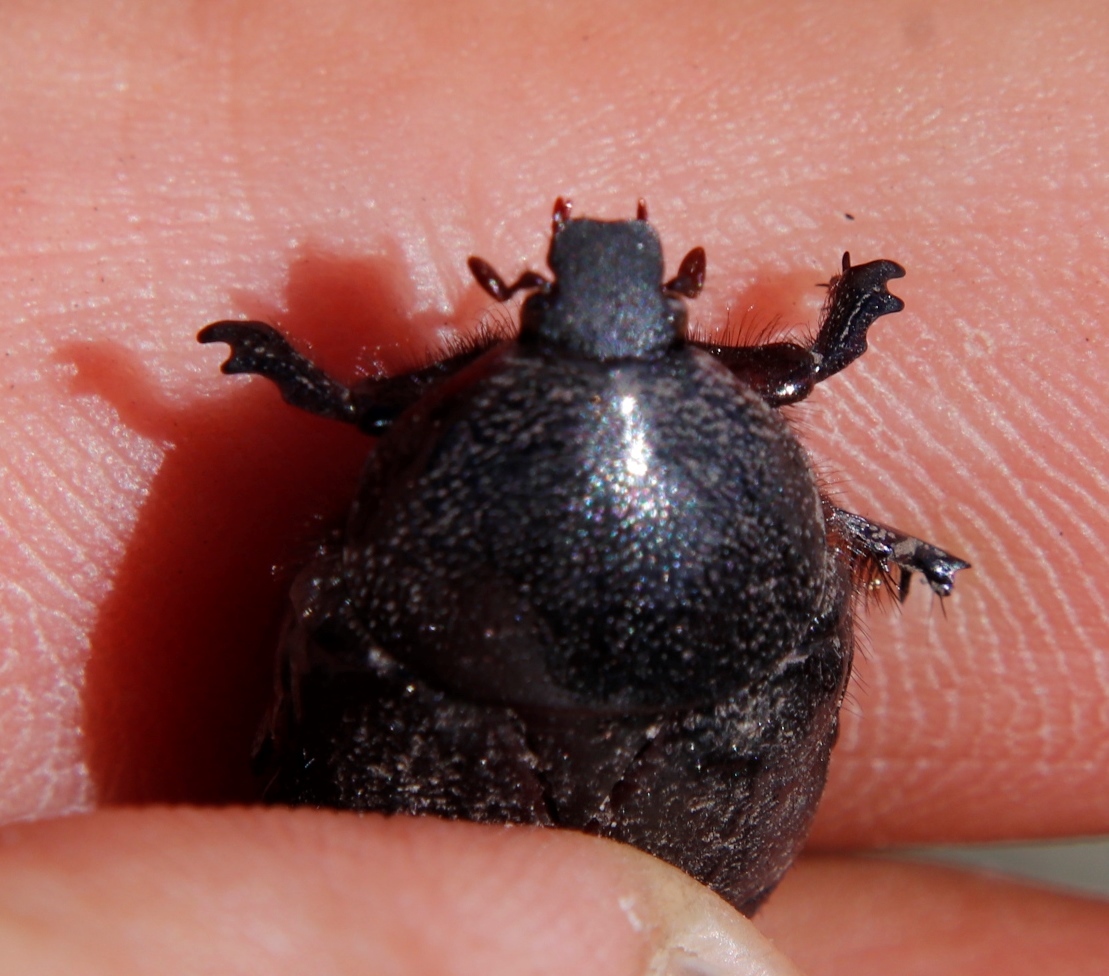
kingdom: Animalia
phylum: Arthropoda
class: Insecta
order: Coleoptera
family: Scarabaeidae
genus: Rhinocoeta
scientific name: Rhinocoeta sanguinipes
